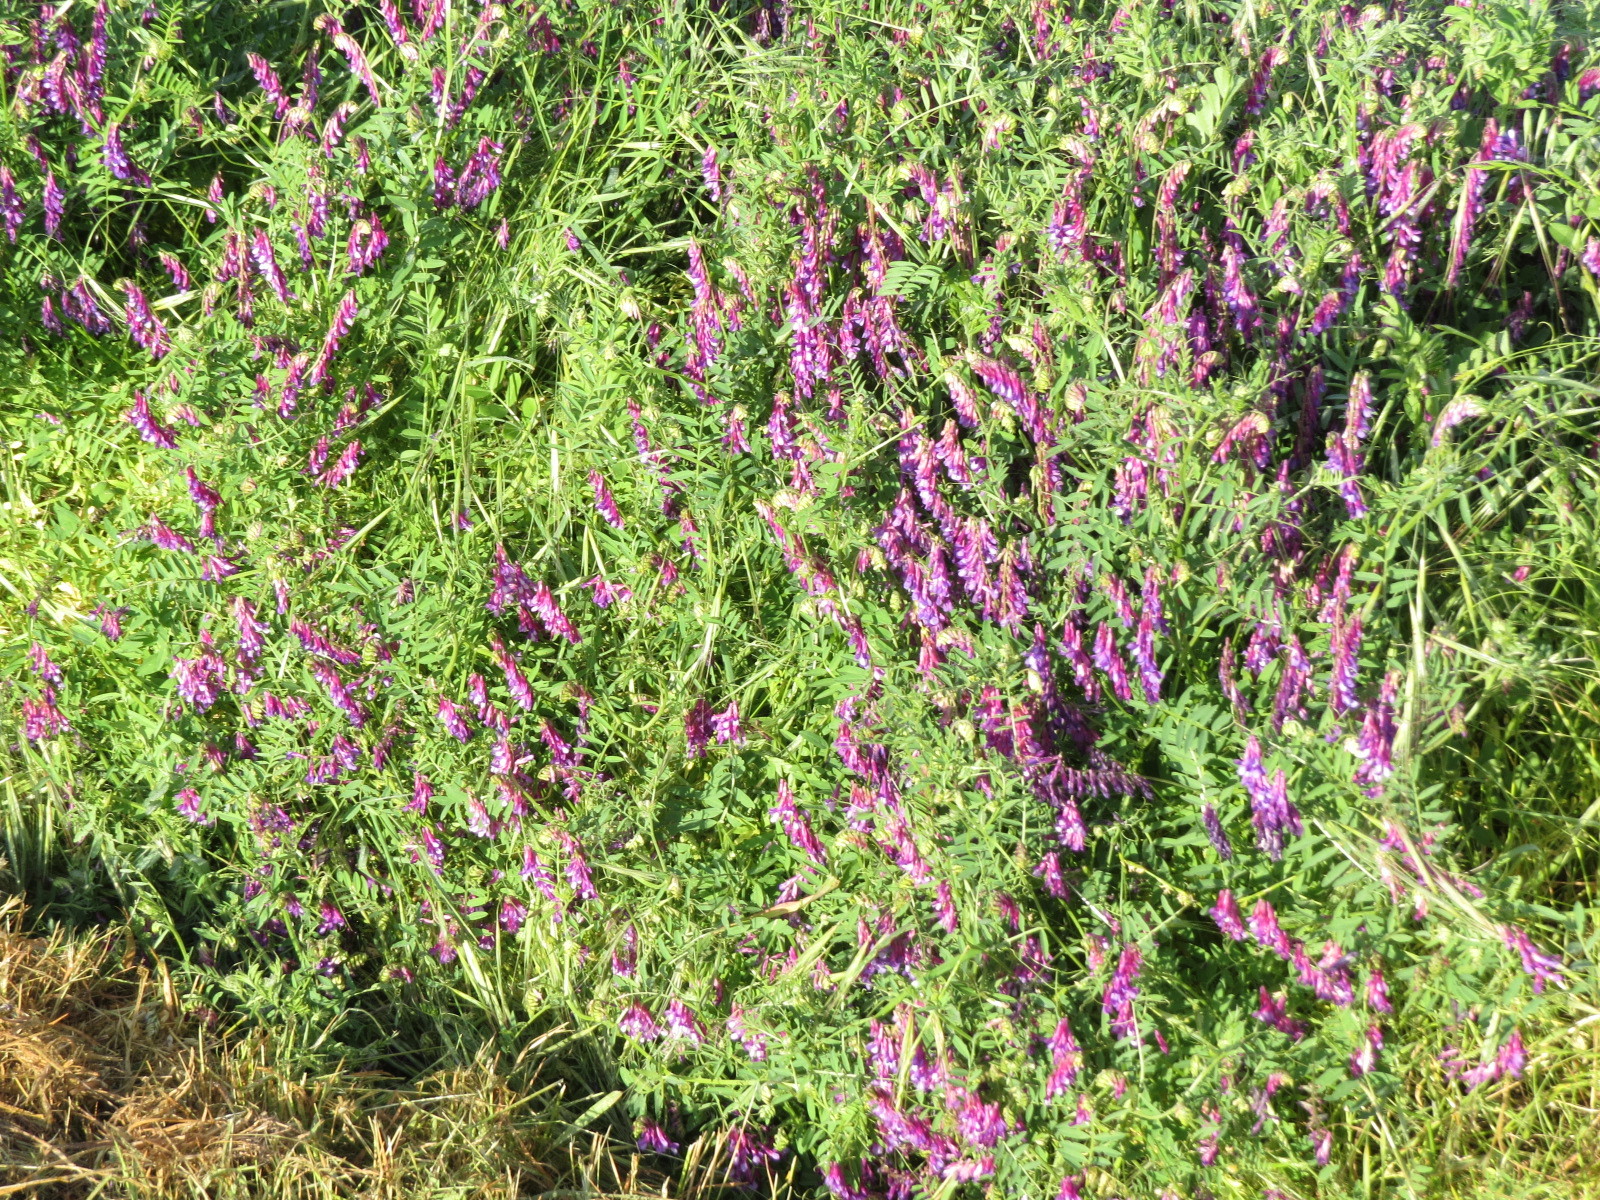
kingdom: Plantae
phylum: Tracheophyta
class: Magnoliopsida
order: Fabales
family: Fabaceae
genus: Vicia
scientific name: Vicia villosa
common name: Fodder vetch
